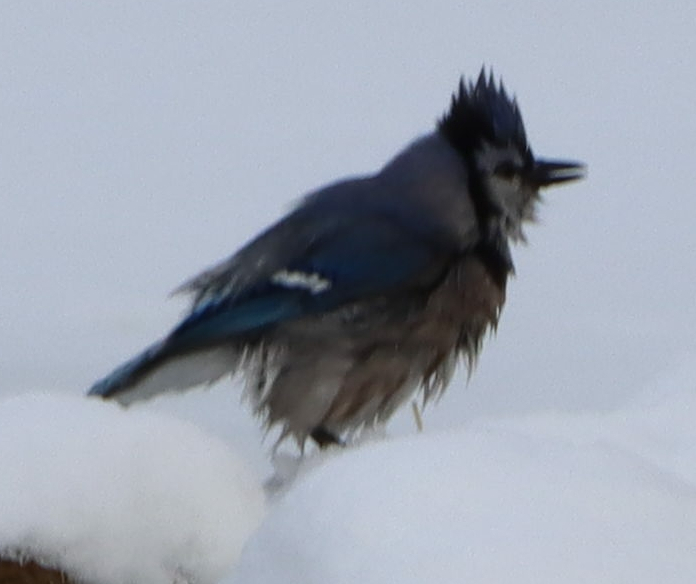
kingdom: Animalia
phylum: Chordata
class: Aves
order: Passeriformes
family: Corvidae
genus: Cyanocitta
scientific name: Cyanocitta cristata
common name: Blue jay
